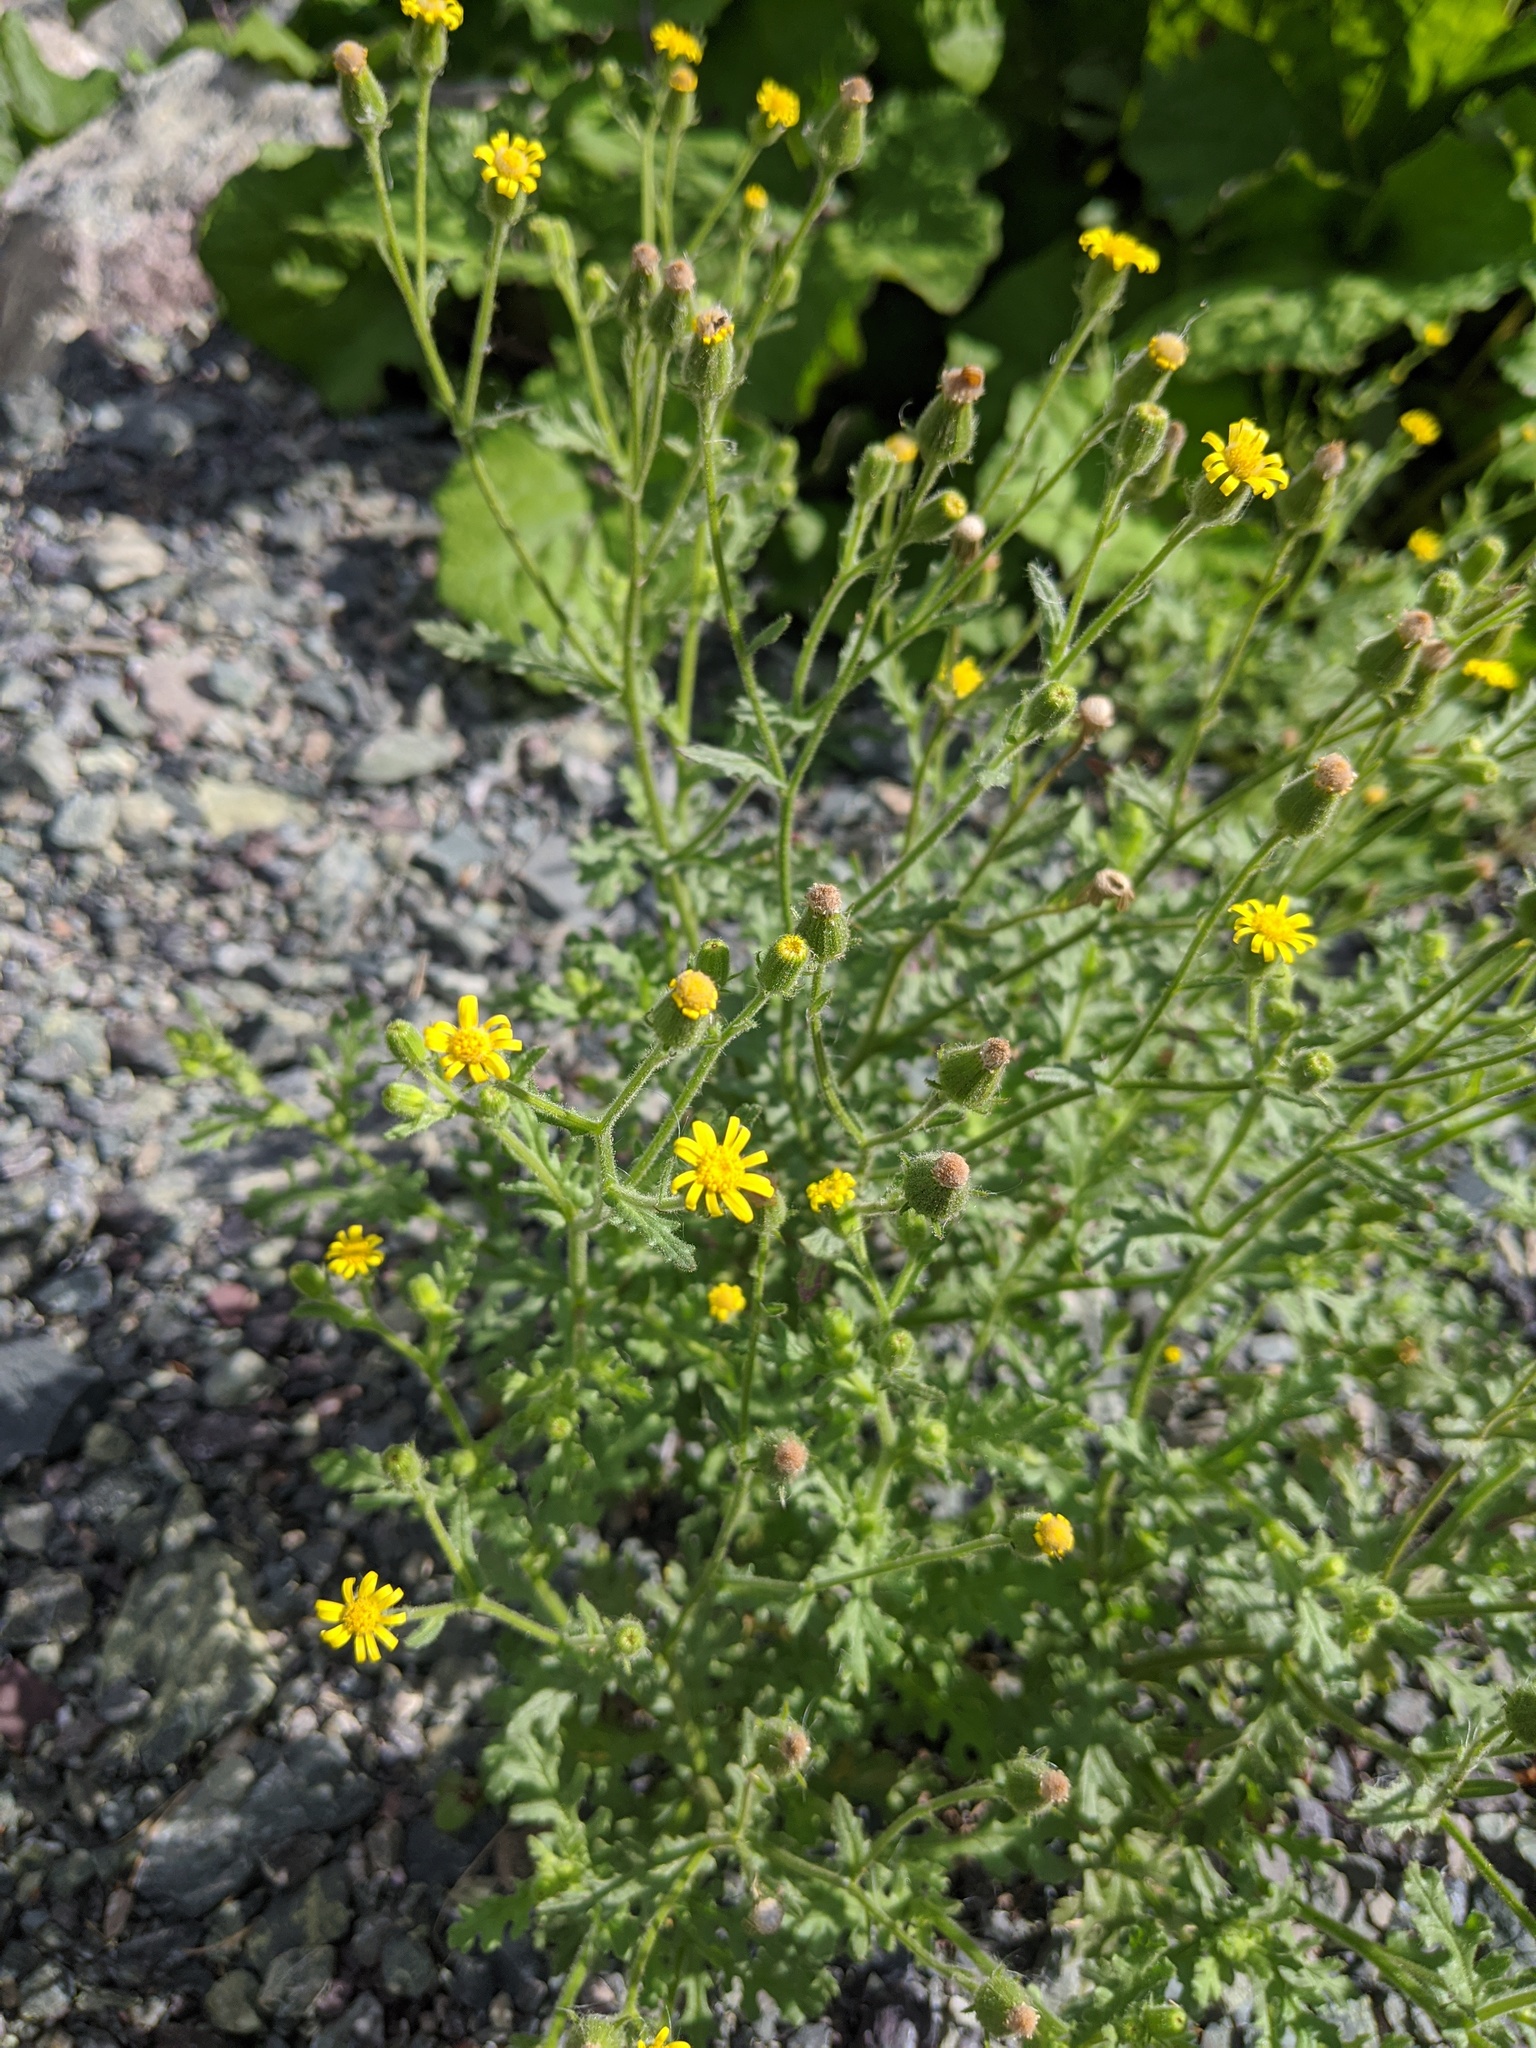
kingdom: Plantae
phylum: Tracheophyta
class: Magnoliopsida
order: Asterales
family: Asteraceae
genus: Senecio
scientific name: Senecio viscosus
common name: Sticky groundsel
